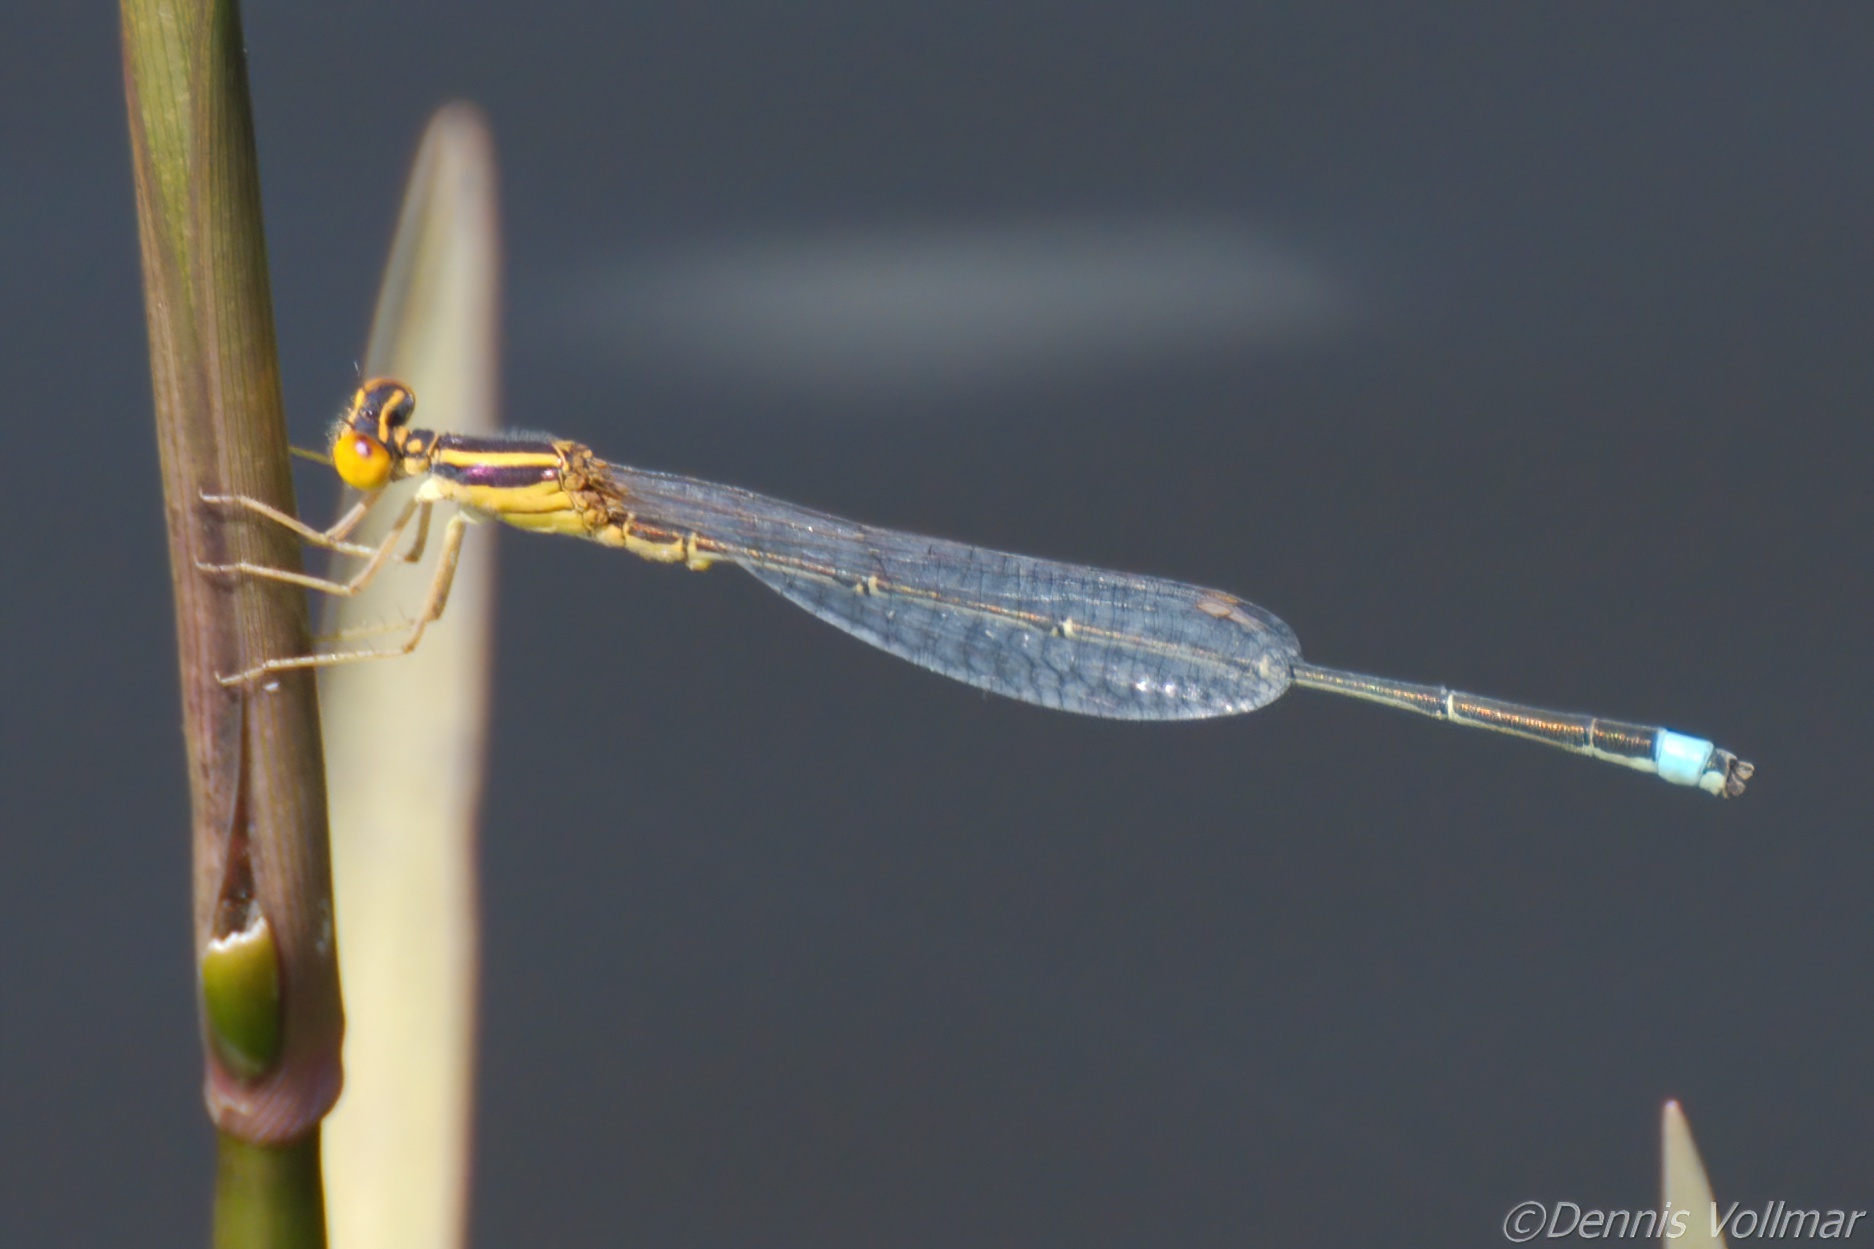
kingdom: Animalia
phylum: Arthropoda
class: Insecta
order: Odonata
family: Coenagrionidae
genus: Enallagma
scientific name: Enallagma sulcatum
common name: Golden bluet
